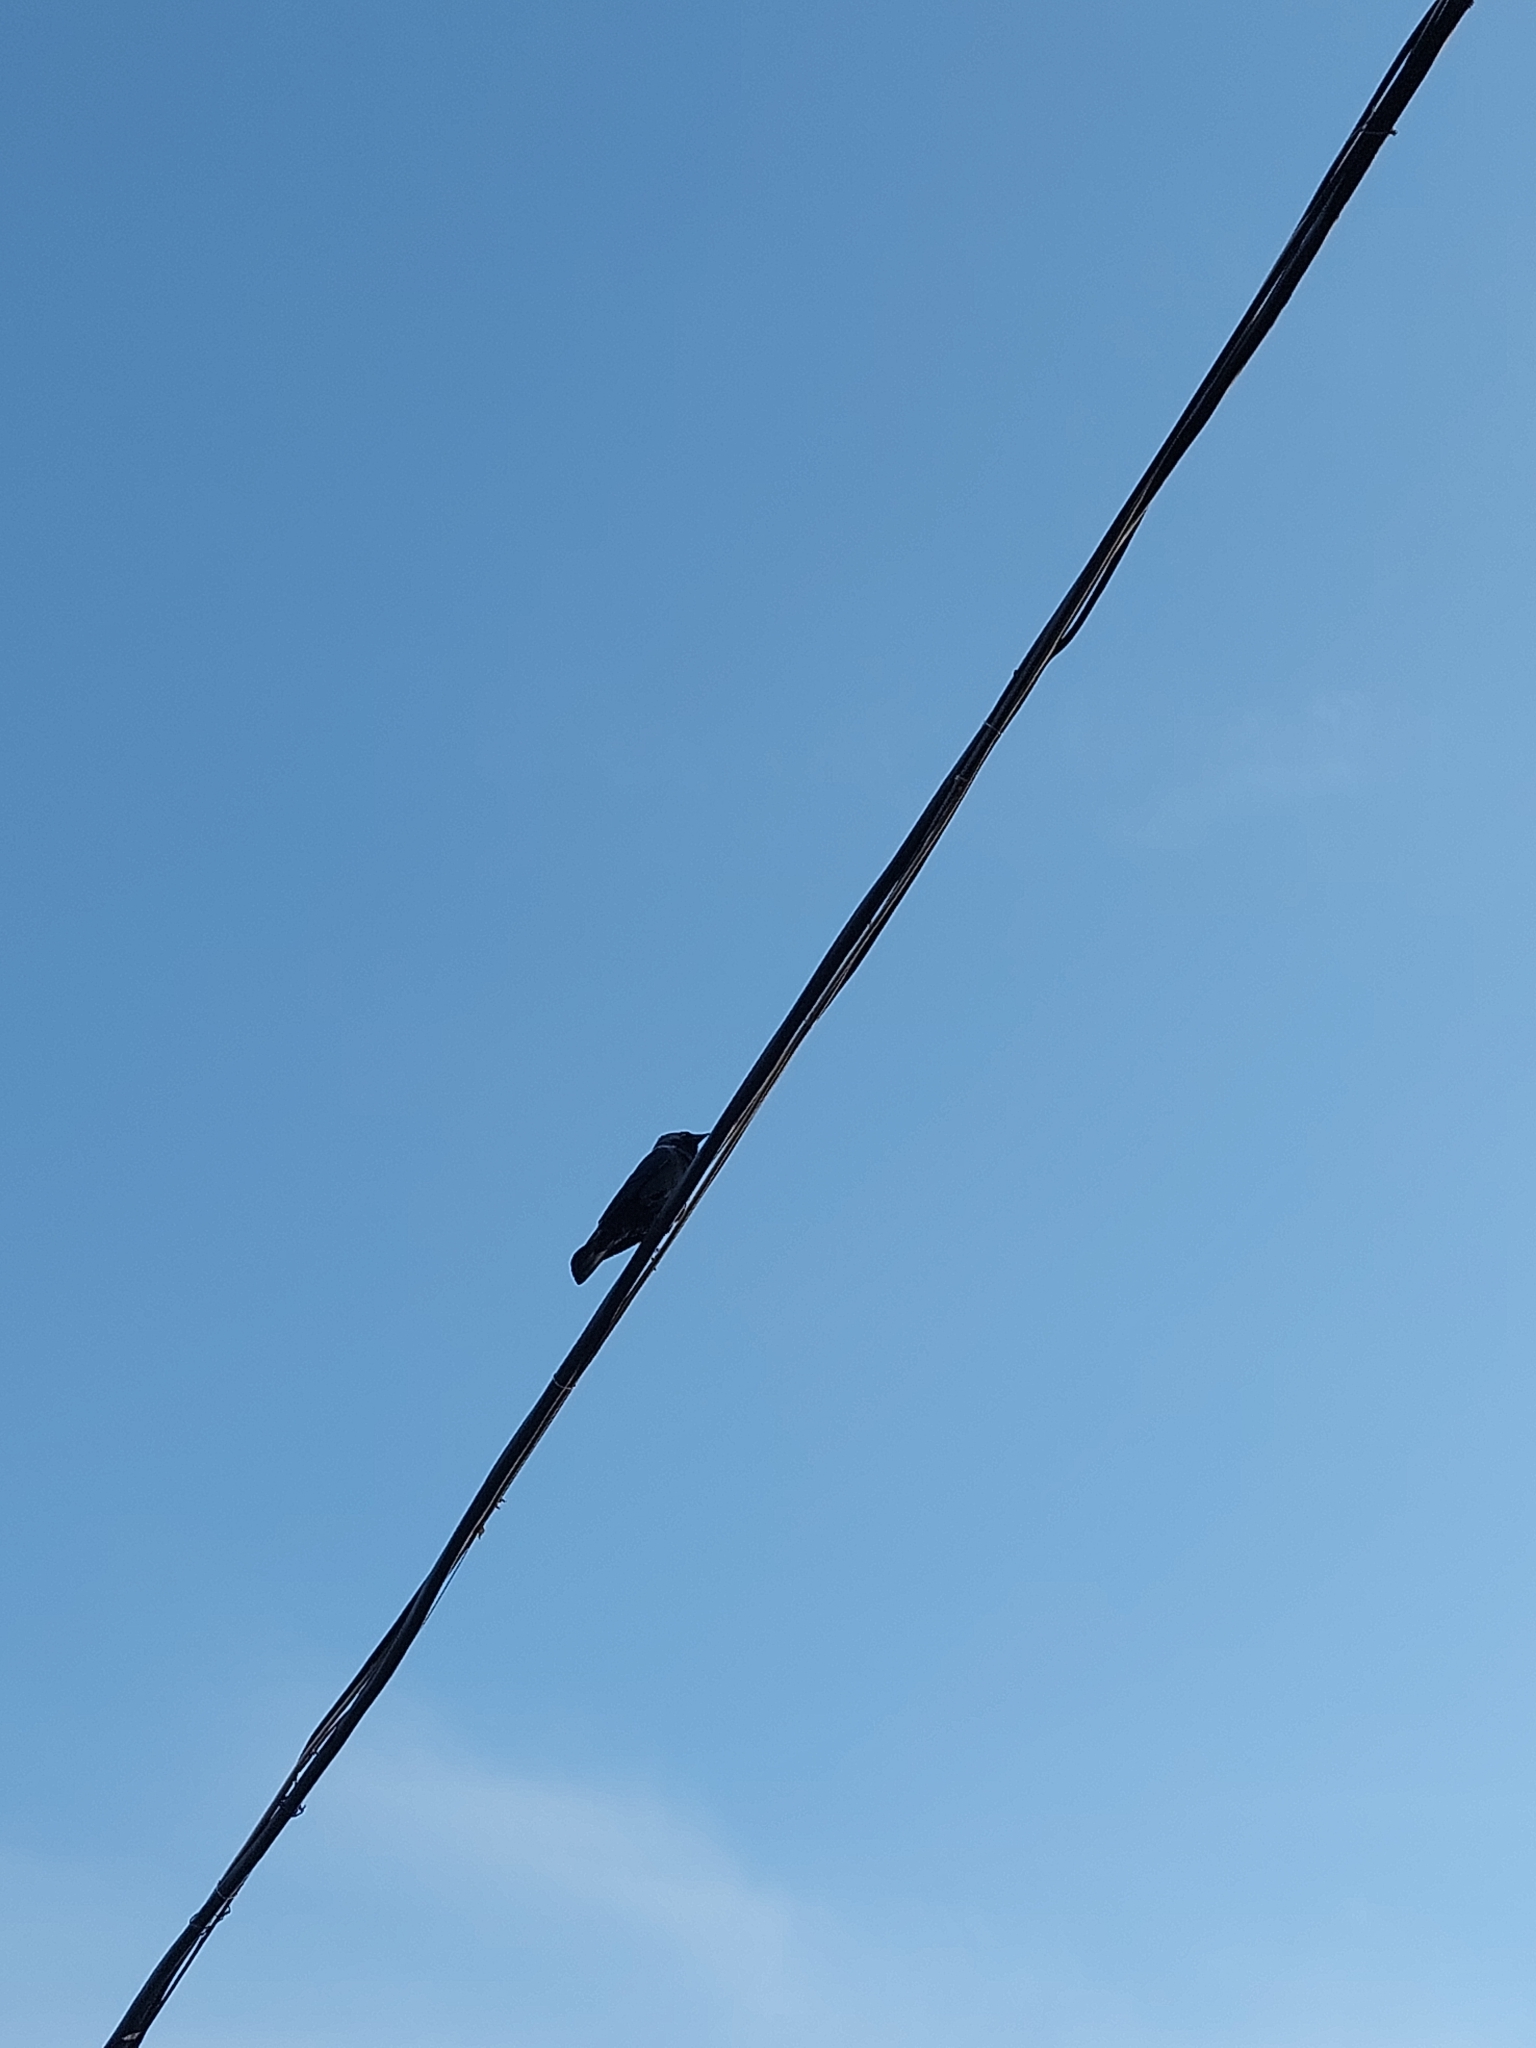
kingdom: Animalia
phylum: Chordata
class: Aves
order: Passeriformes
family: Corvidae
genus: Coloeus
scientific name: Coloeus monedula
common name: Western jackdaw
